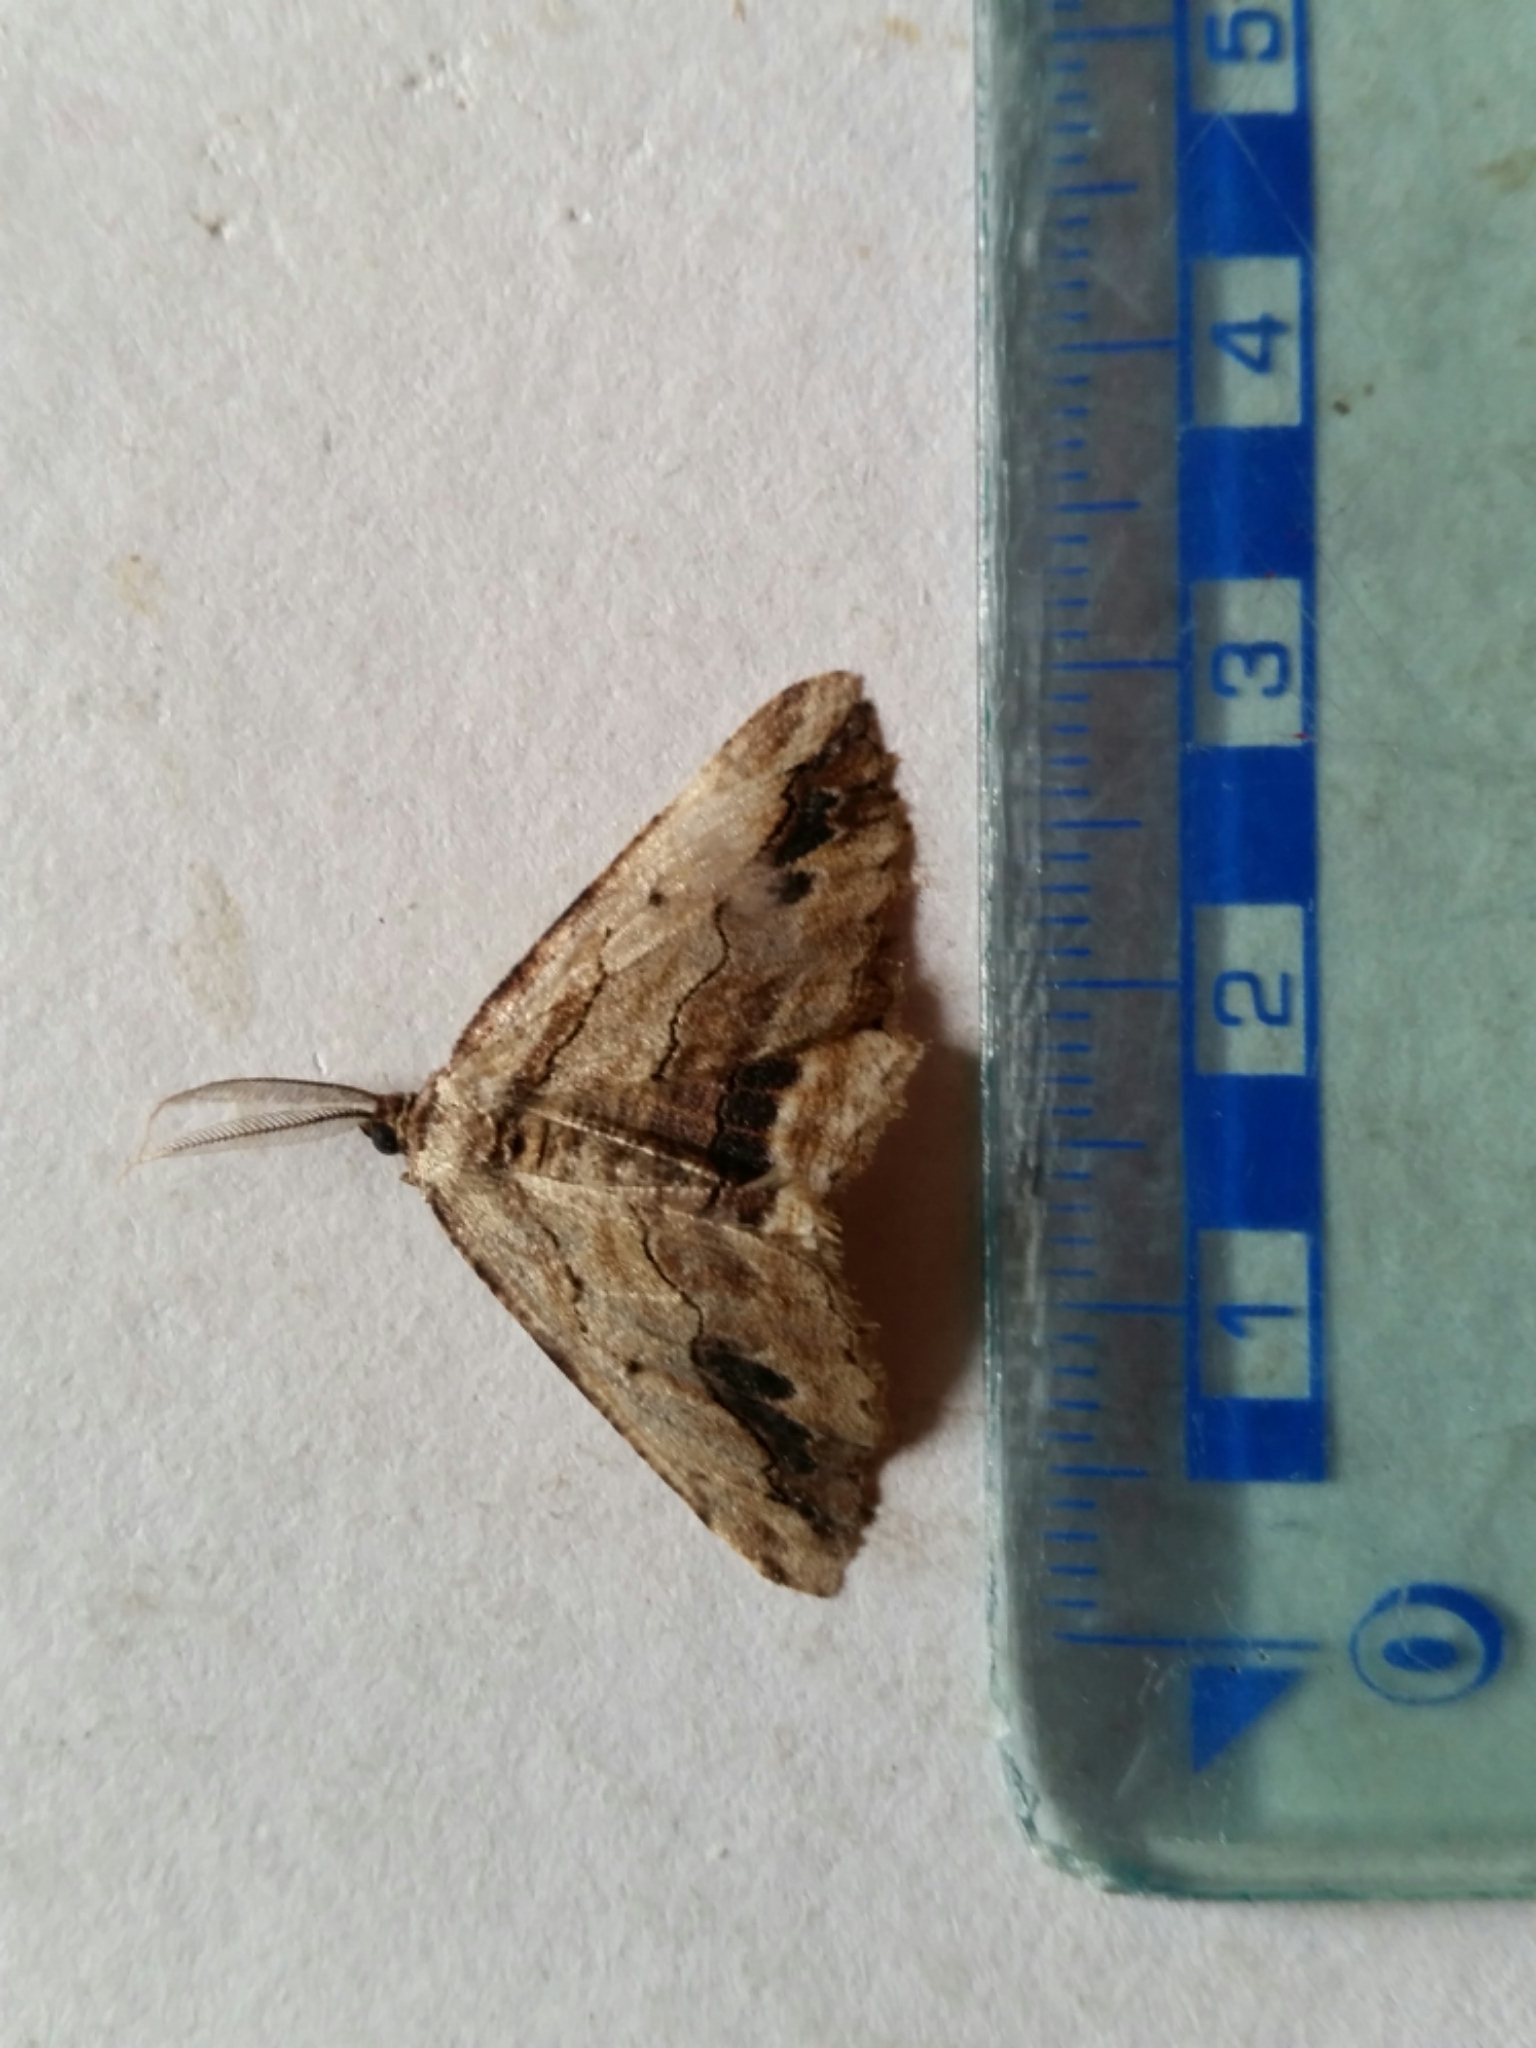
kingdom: Animalia
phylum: Arthropoda
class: Insecta
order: Lepidoptera
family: Geometridae
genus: Menophra
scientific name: Menophra abruptaria
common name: Waved umber
